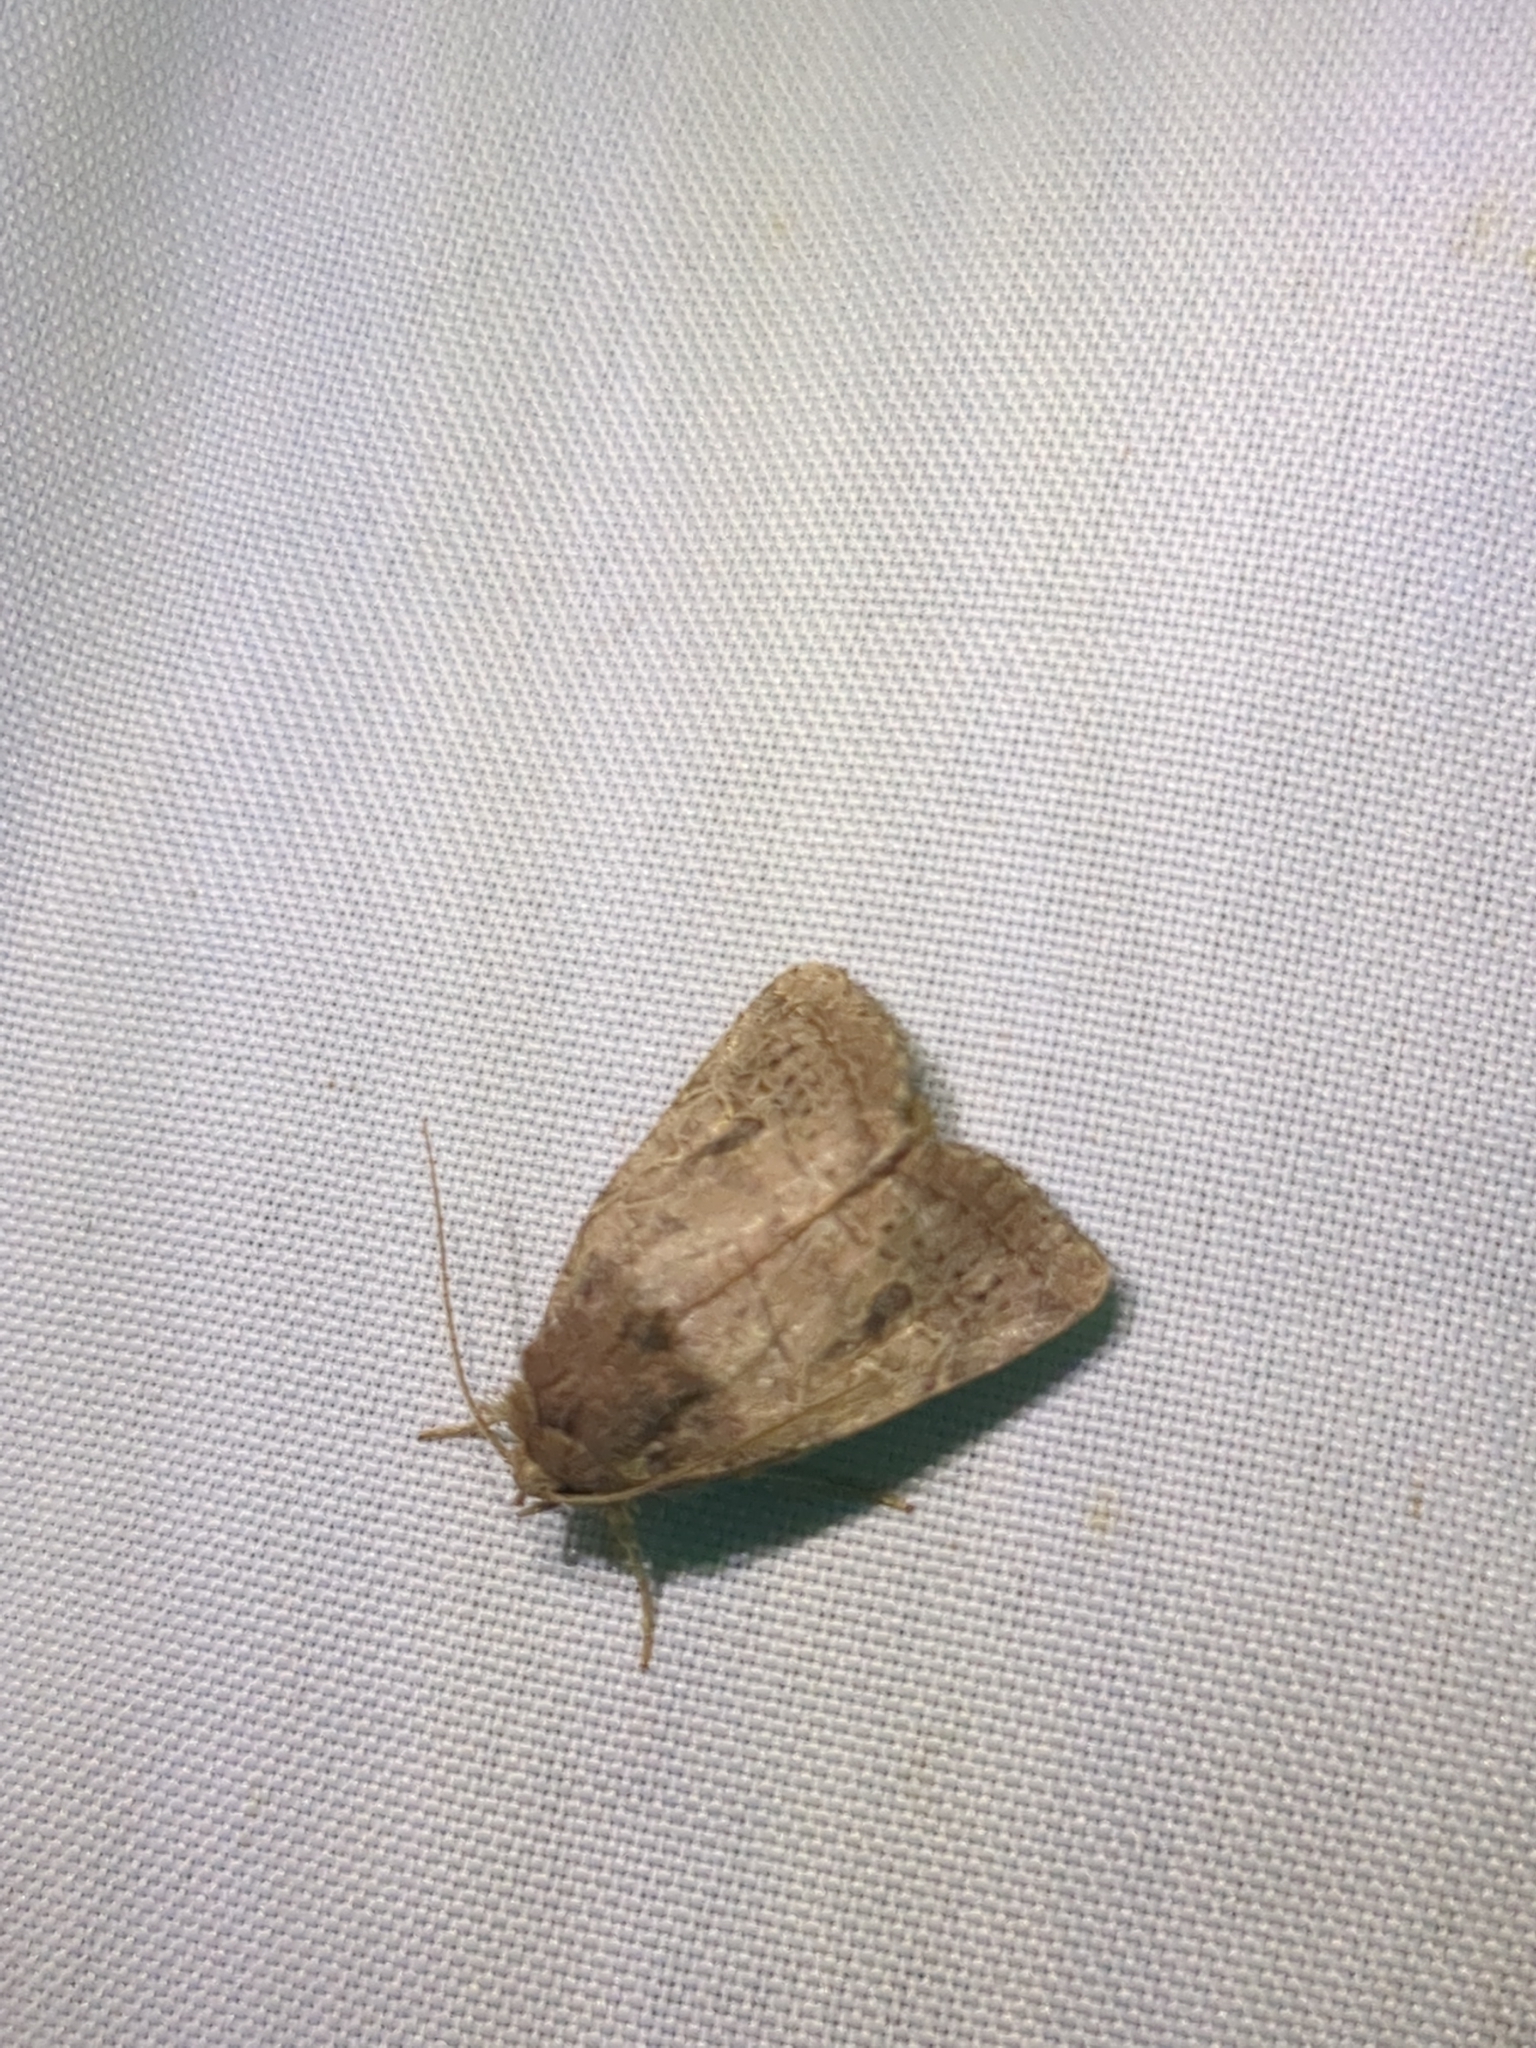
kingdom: Animalia
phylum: Arthropoda
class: Insecta
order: Lepidoptera
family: Noctuidae
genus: Orthodes
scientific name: Orthodes furtiva
